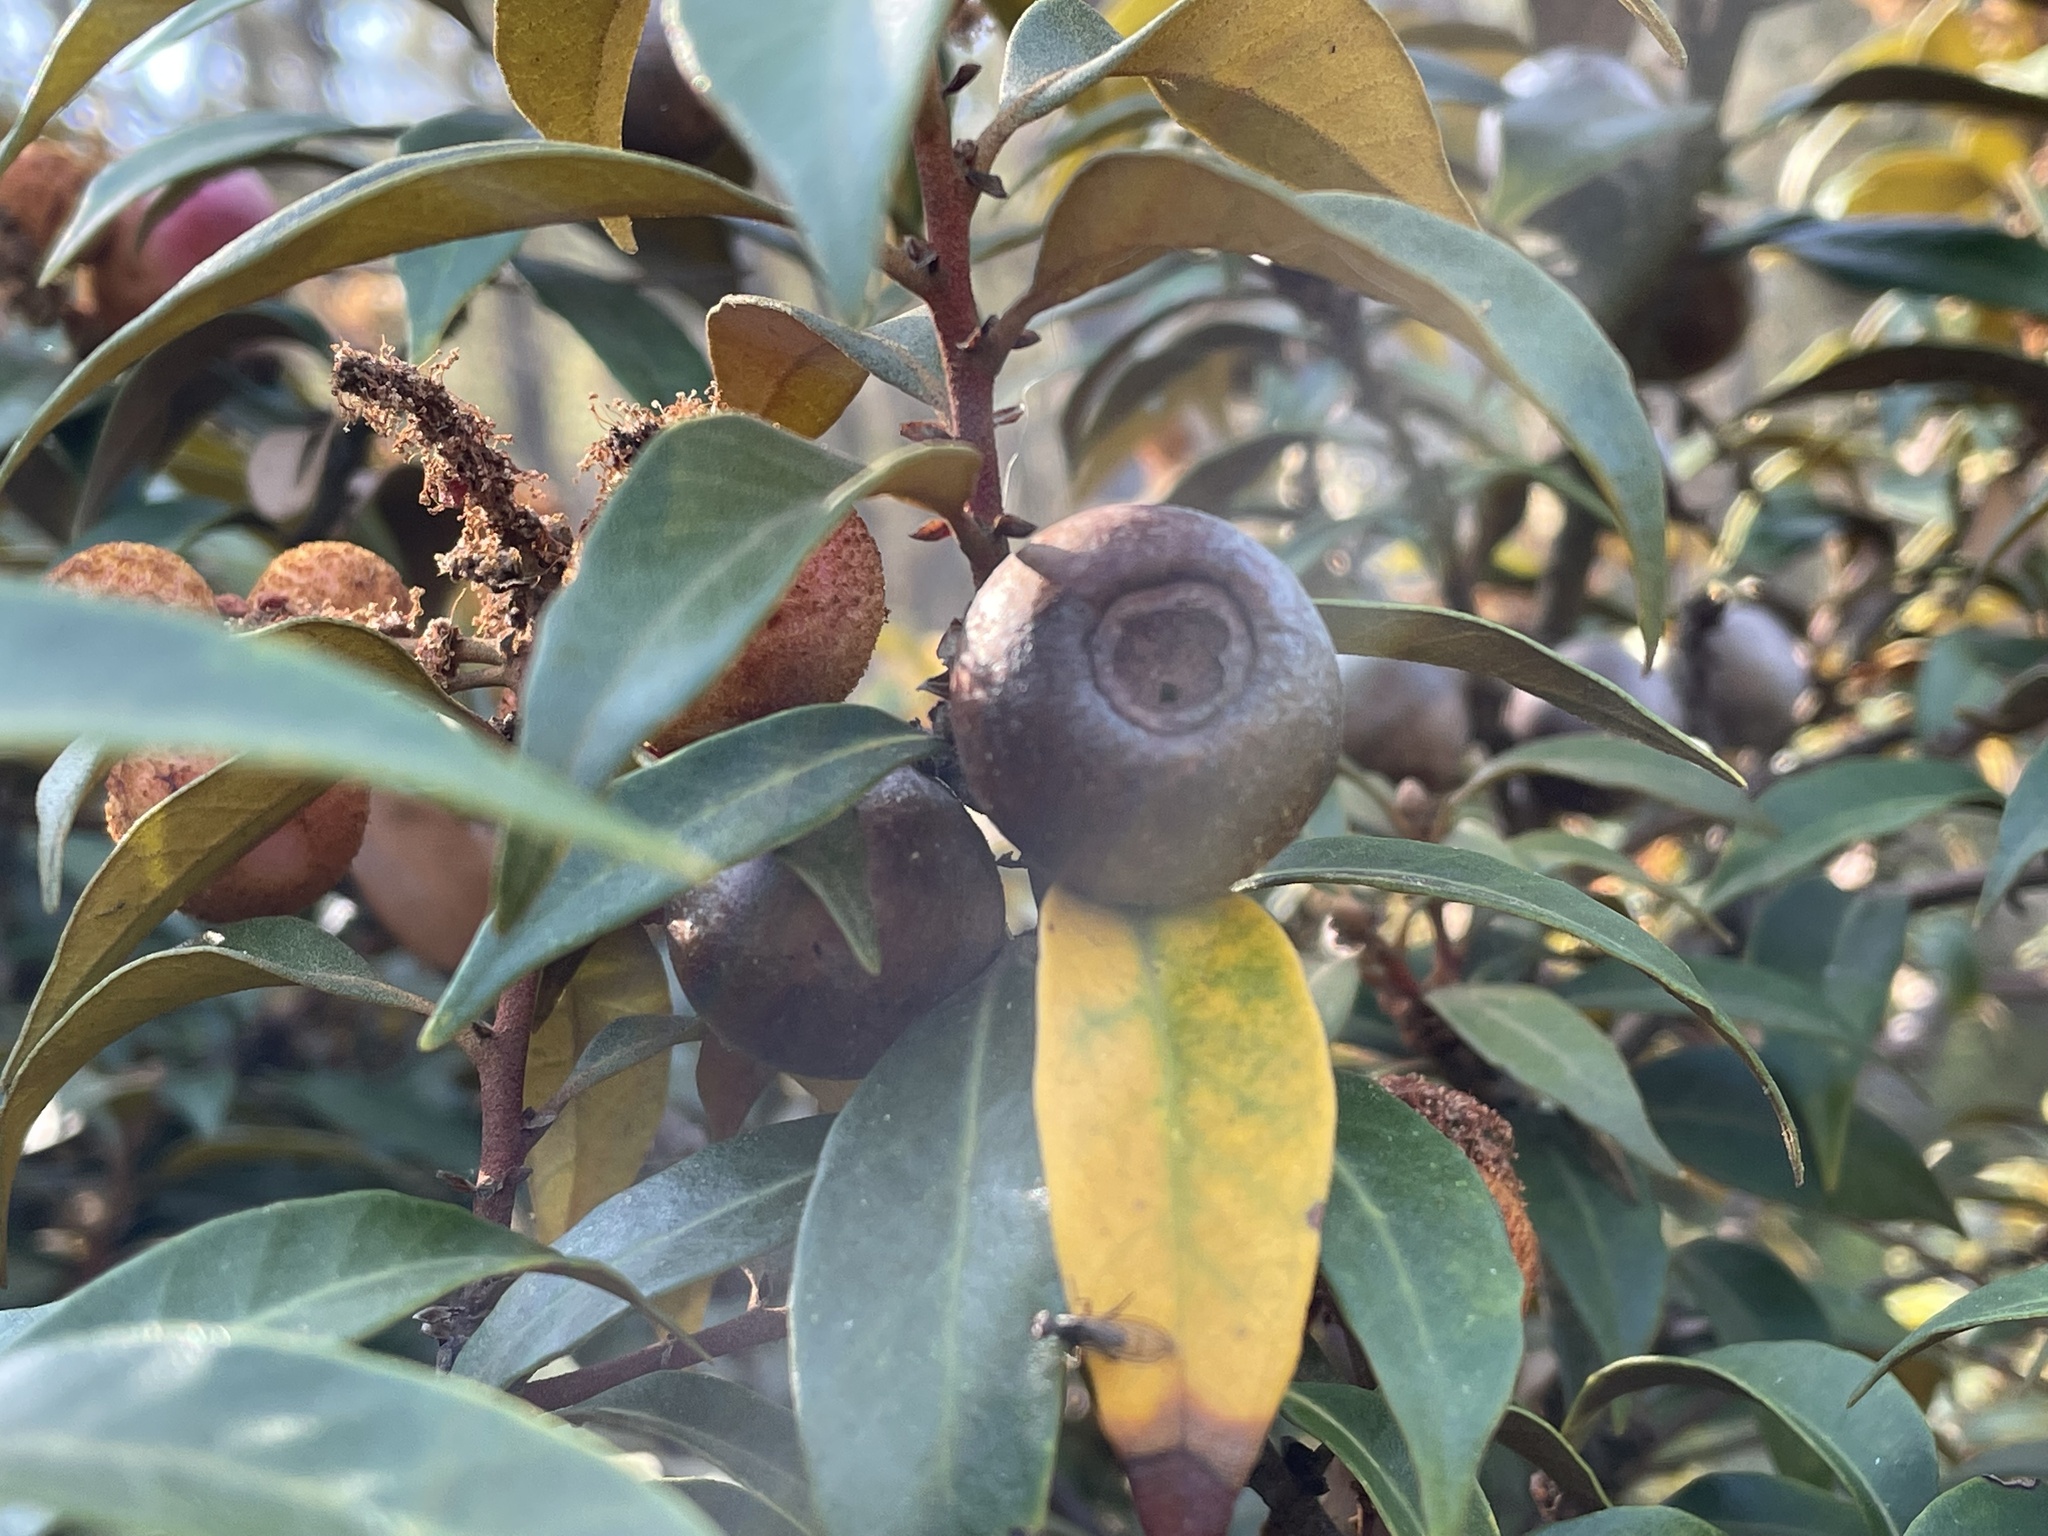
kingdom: Plantae
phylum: Tracheophyta
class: Magnoliopsida
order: Fagales
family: Fagaceae
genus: Chrysolepis
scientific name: Chrysolepis chrysophylla
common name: Giant chinquapin
